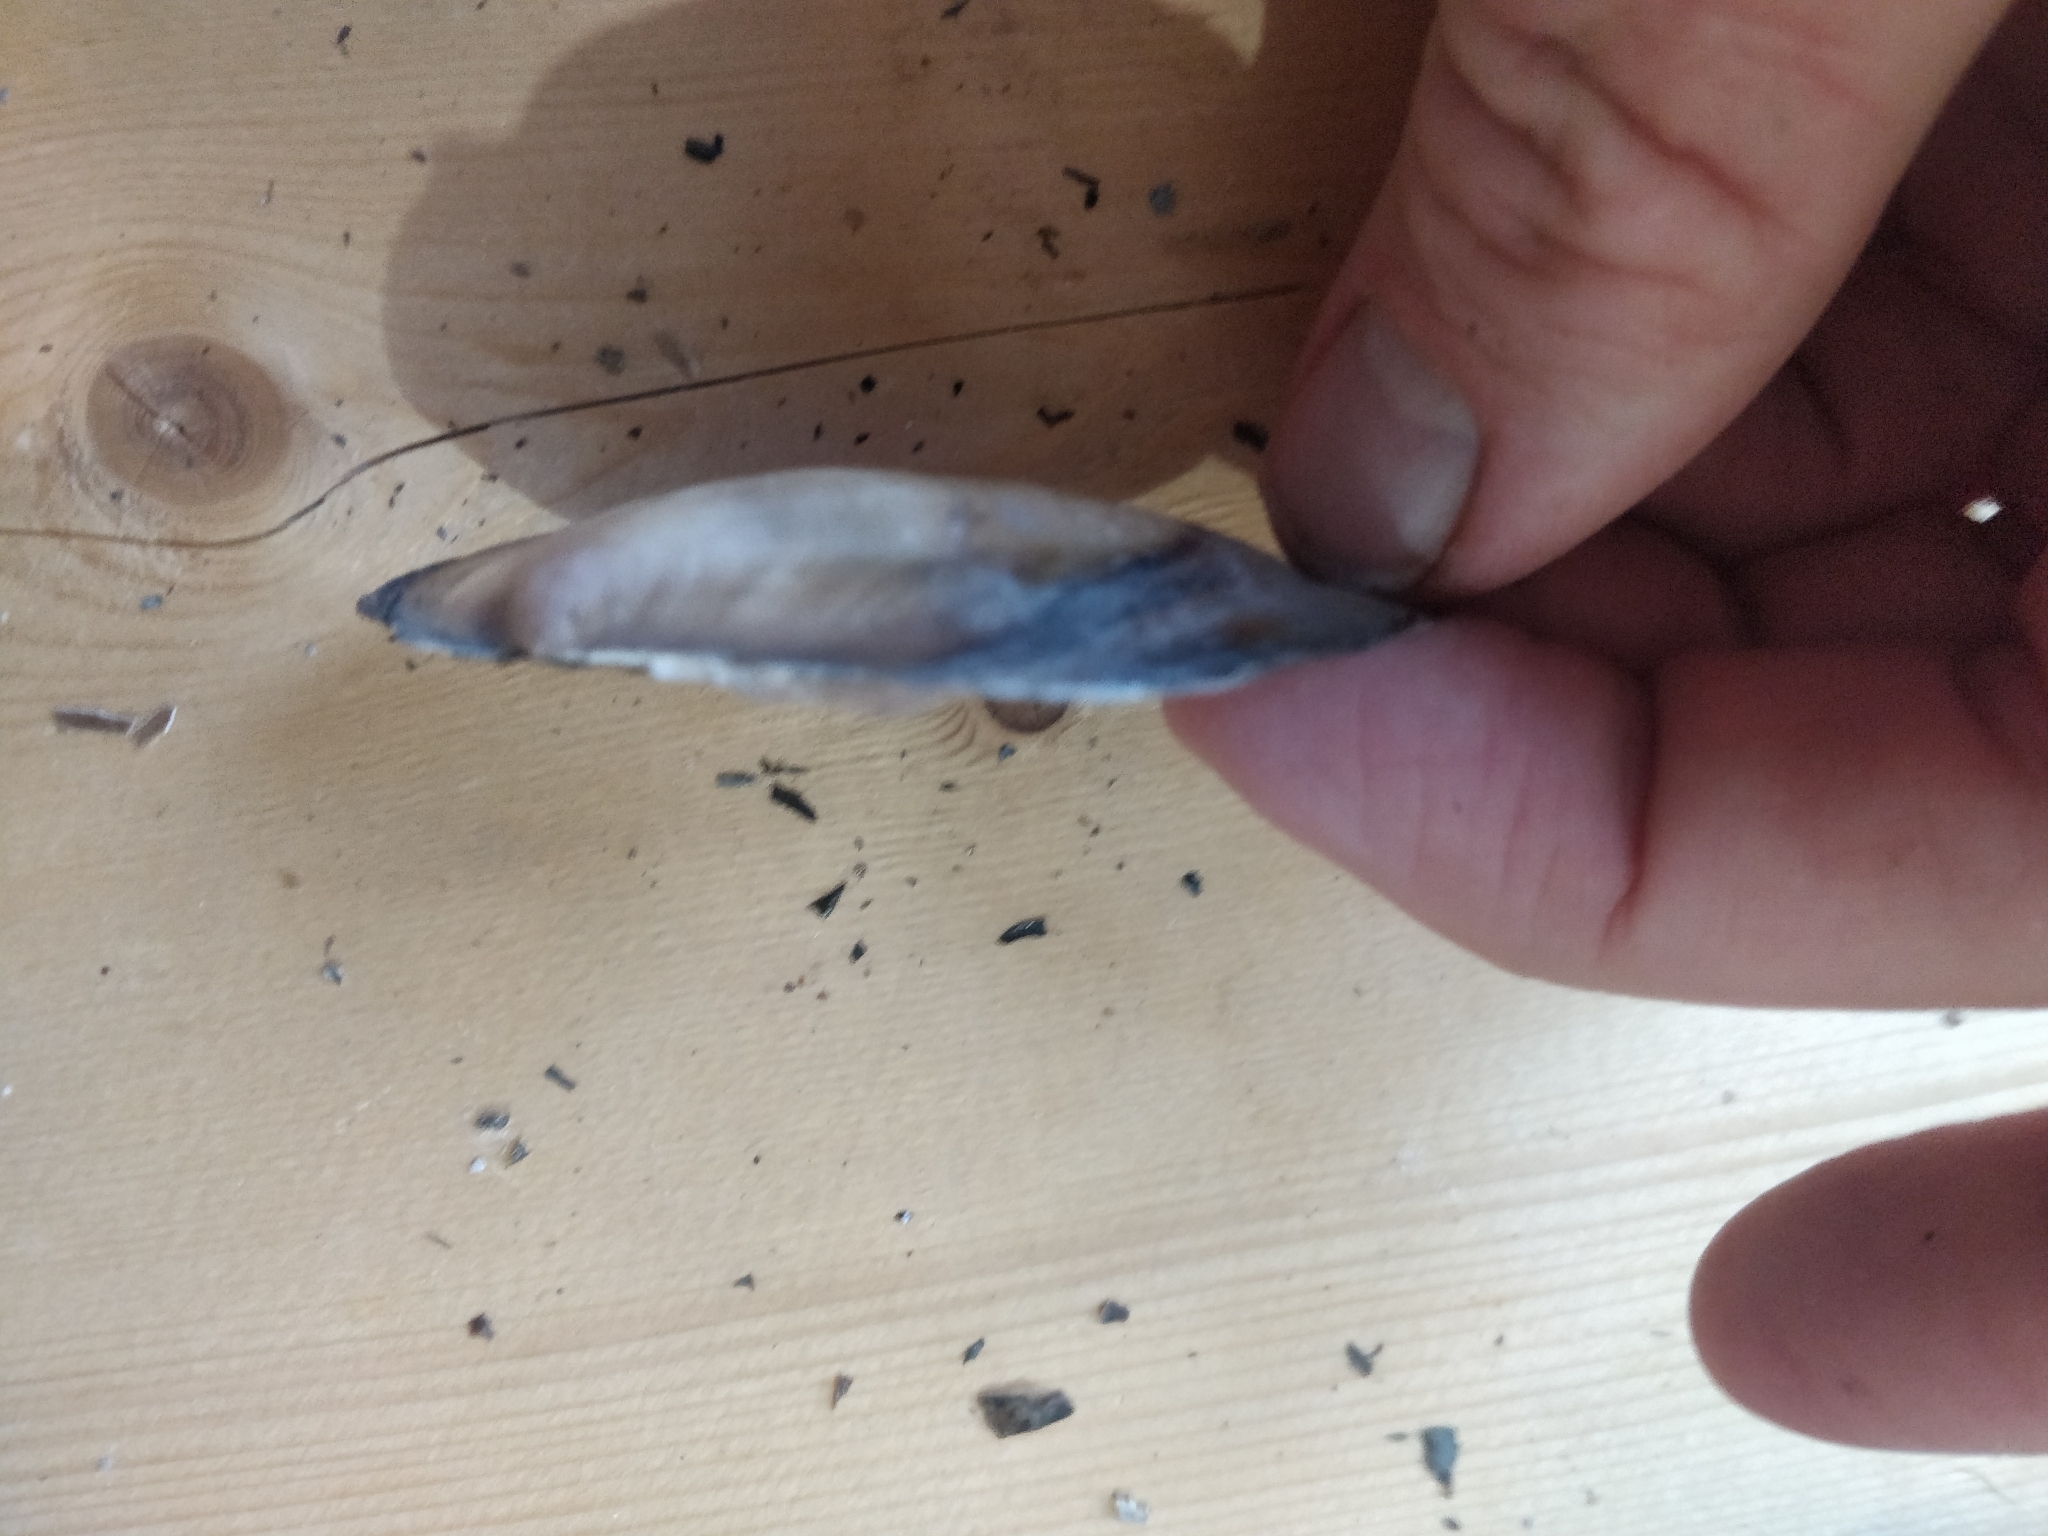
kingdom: Animalia
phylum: Mollusca
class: Bivalvia
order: Unionida
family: Unionidae
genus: Potamilus
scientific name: Potamilus ohiensis
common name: Pink papershell
